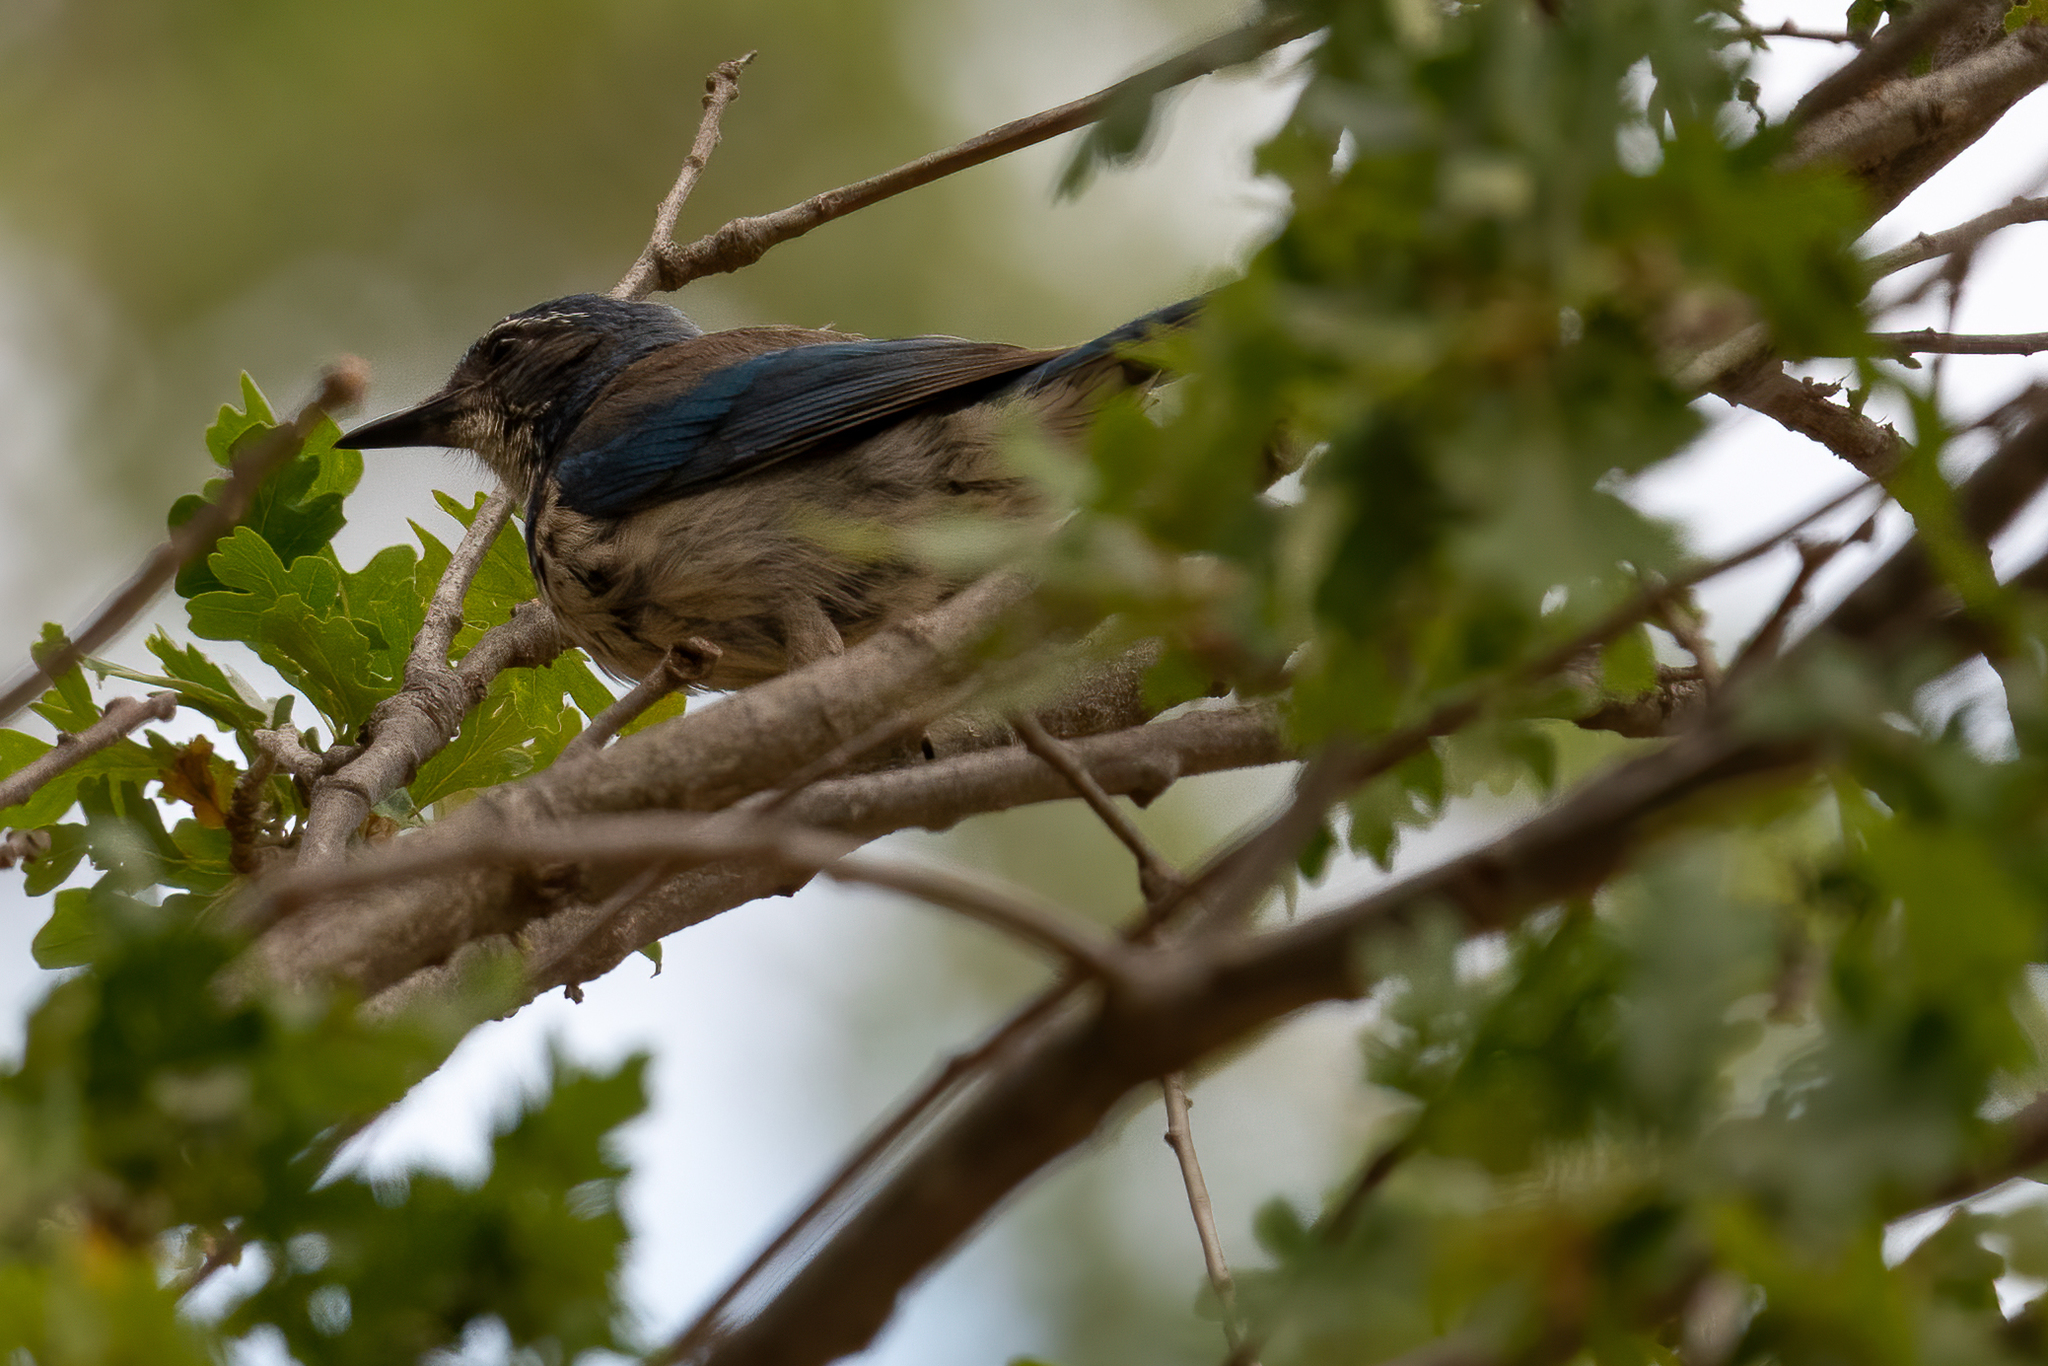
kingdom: Animalia
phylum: Chordata
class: Aves
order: Passeriformes
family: Corvidae
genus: Aphelocoma
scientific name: Aphelocoma californica
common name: California scrub-jay
